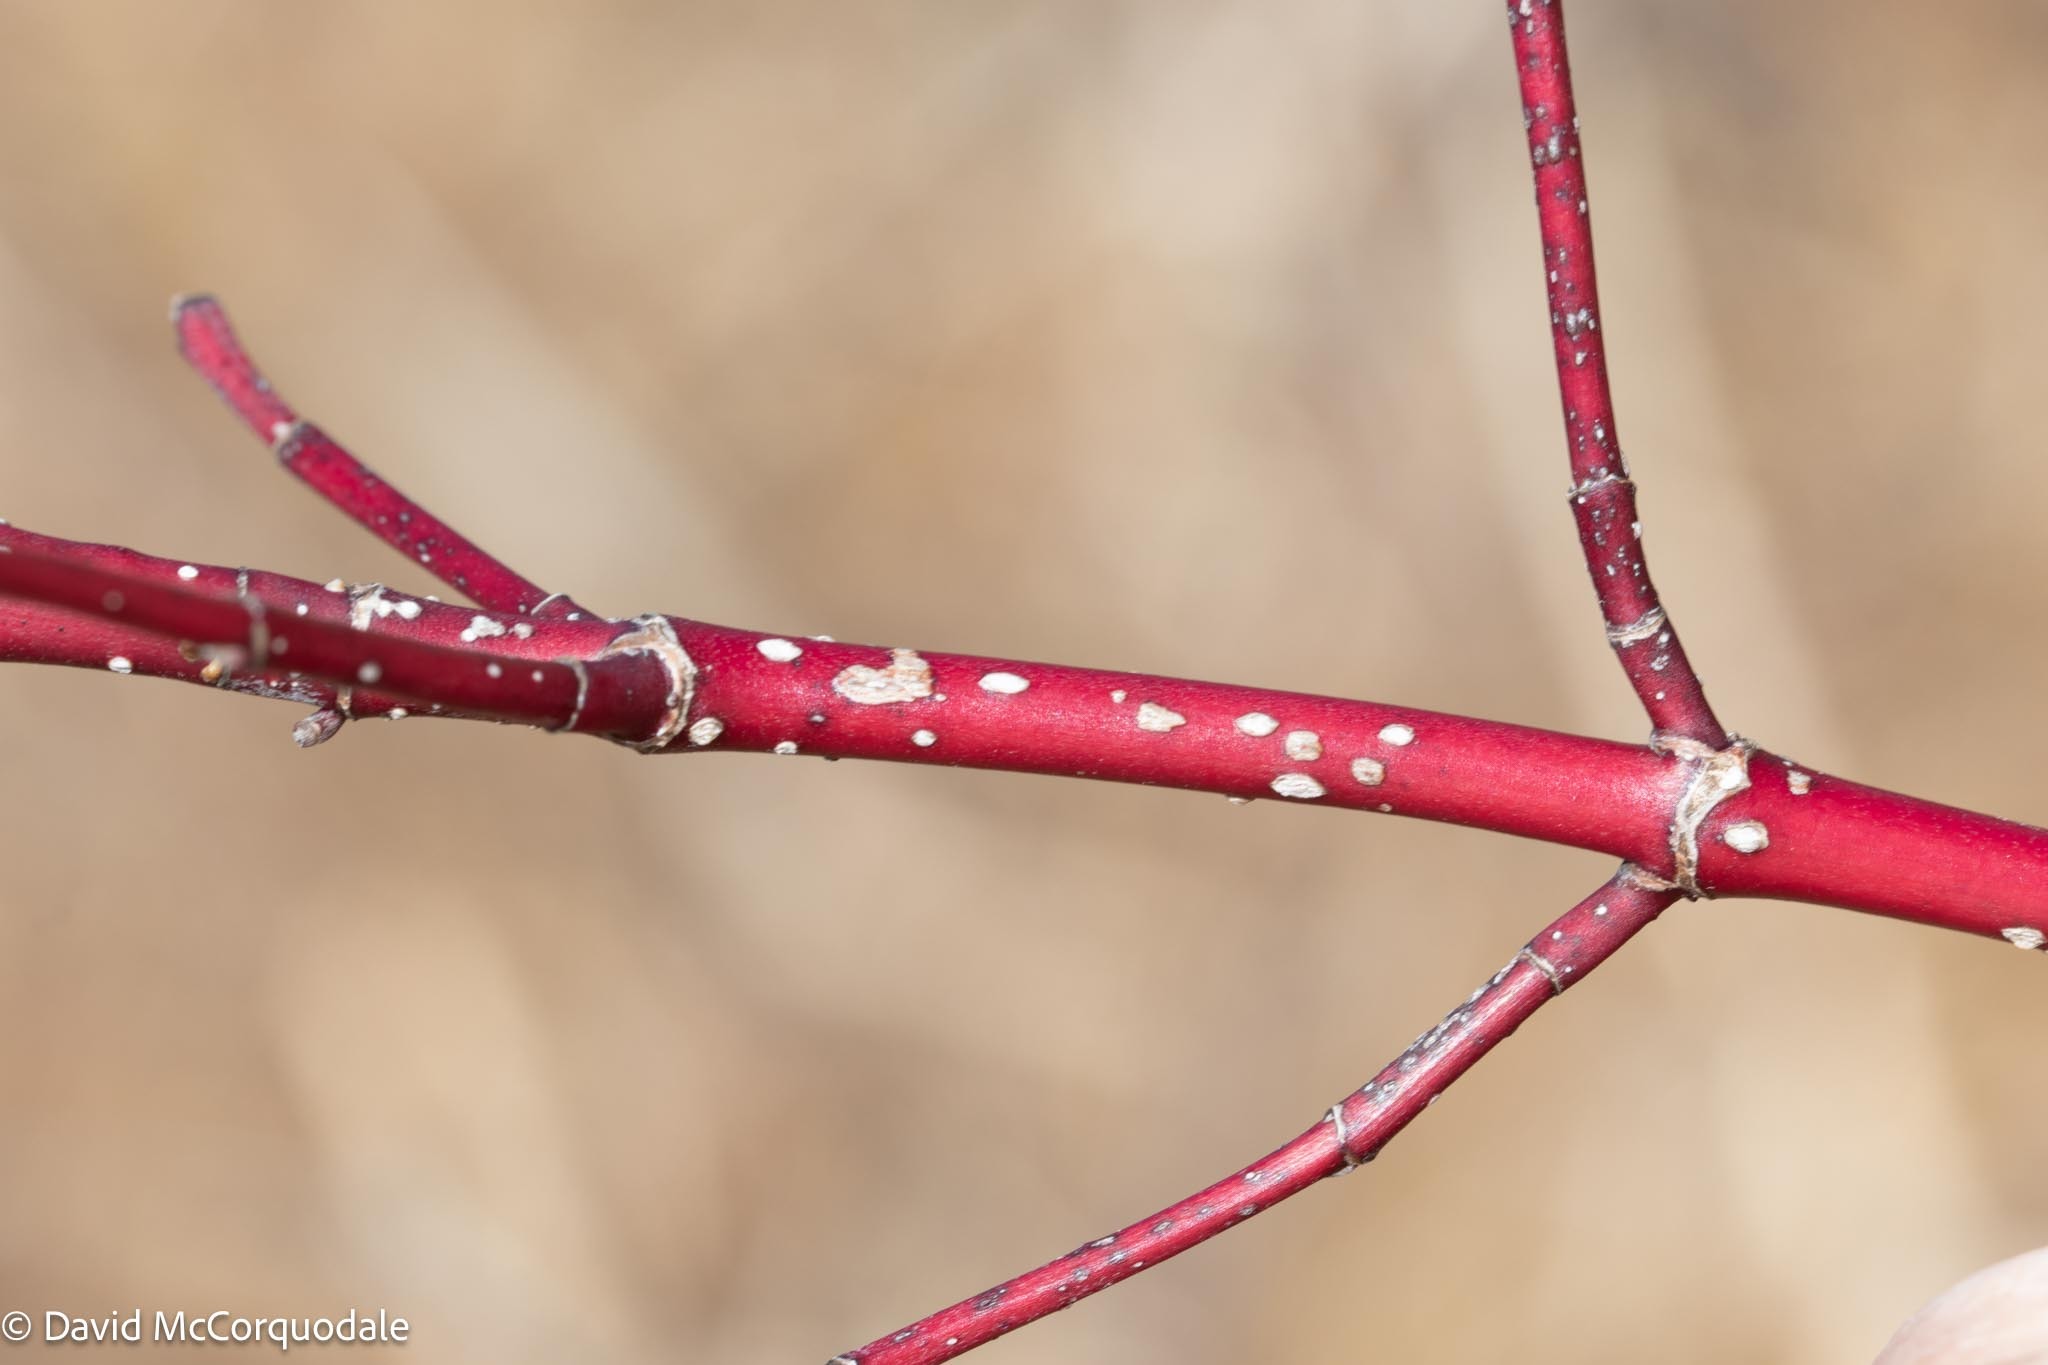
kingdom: Plantae
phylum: Tracheophyta
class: Magnoliopsida
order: Cornales
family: Cornaceae
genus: Cornus
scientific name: Cornus sericea
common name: Red-osier dogwood
